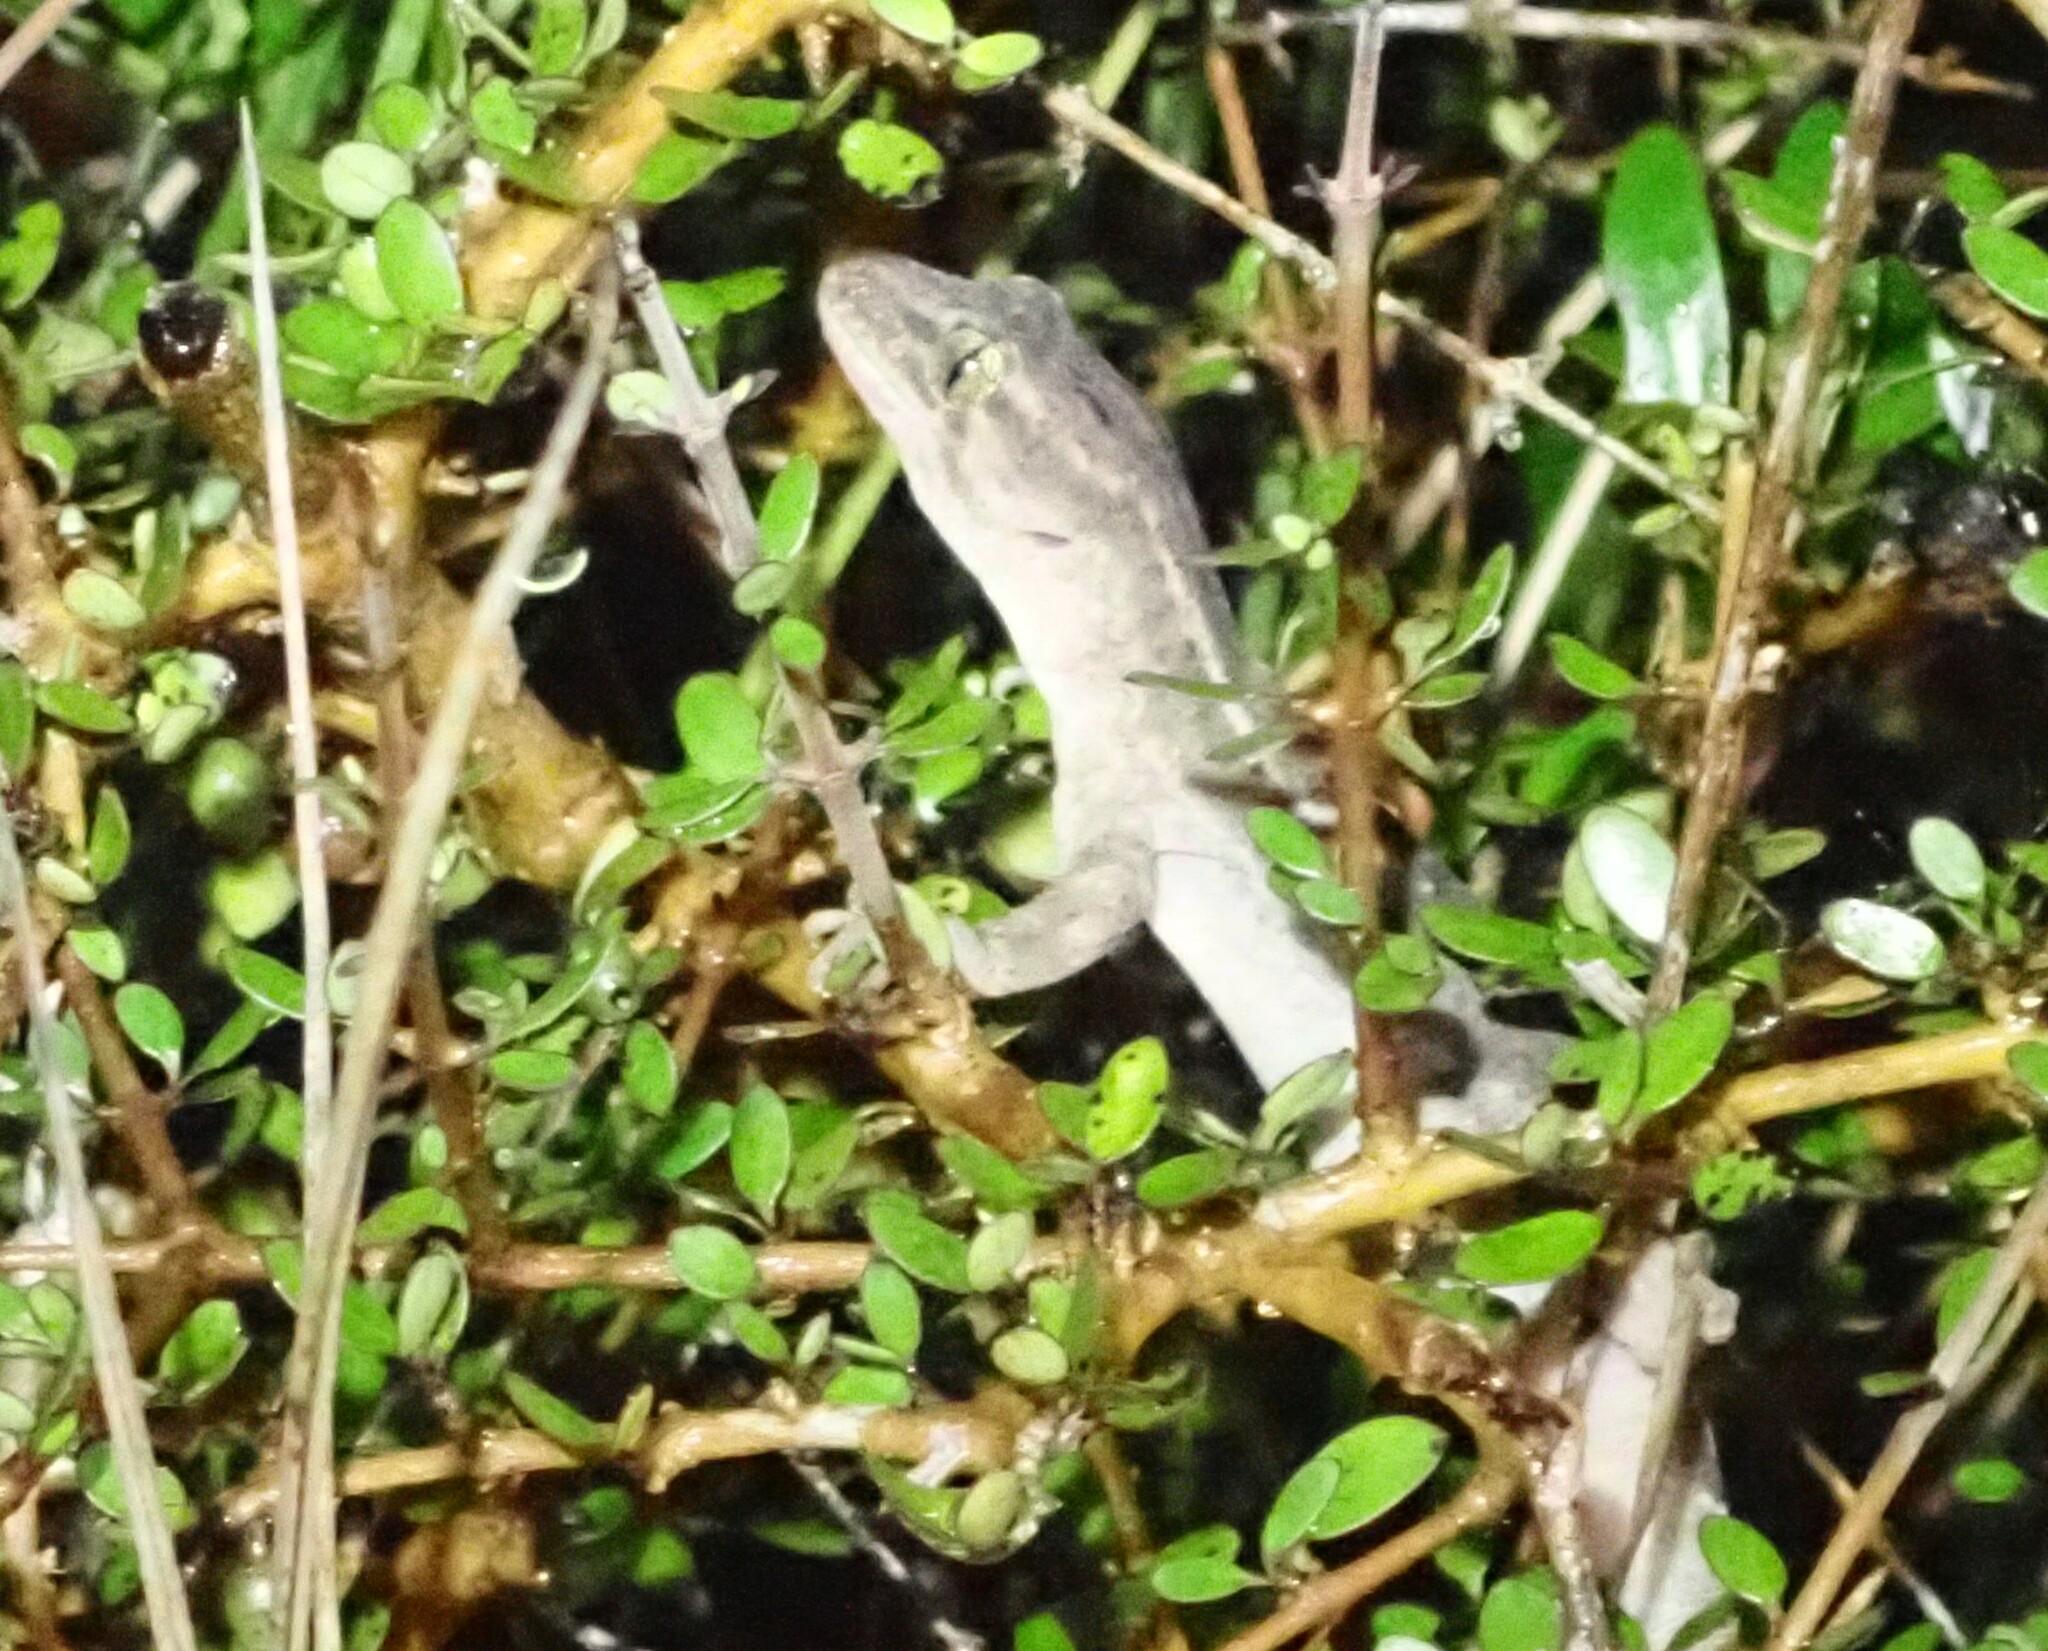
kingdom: Animalia
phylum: Chordata
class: Squamata
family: Diplodactylidae
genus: Woodworthia
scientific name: Woodworthia maculata
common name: Raukawa gecko
